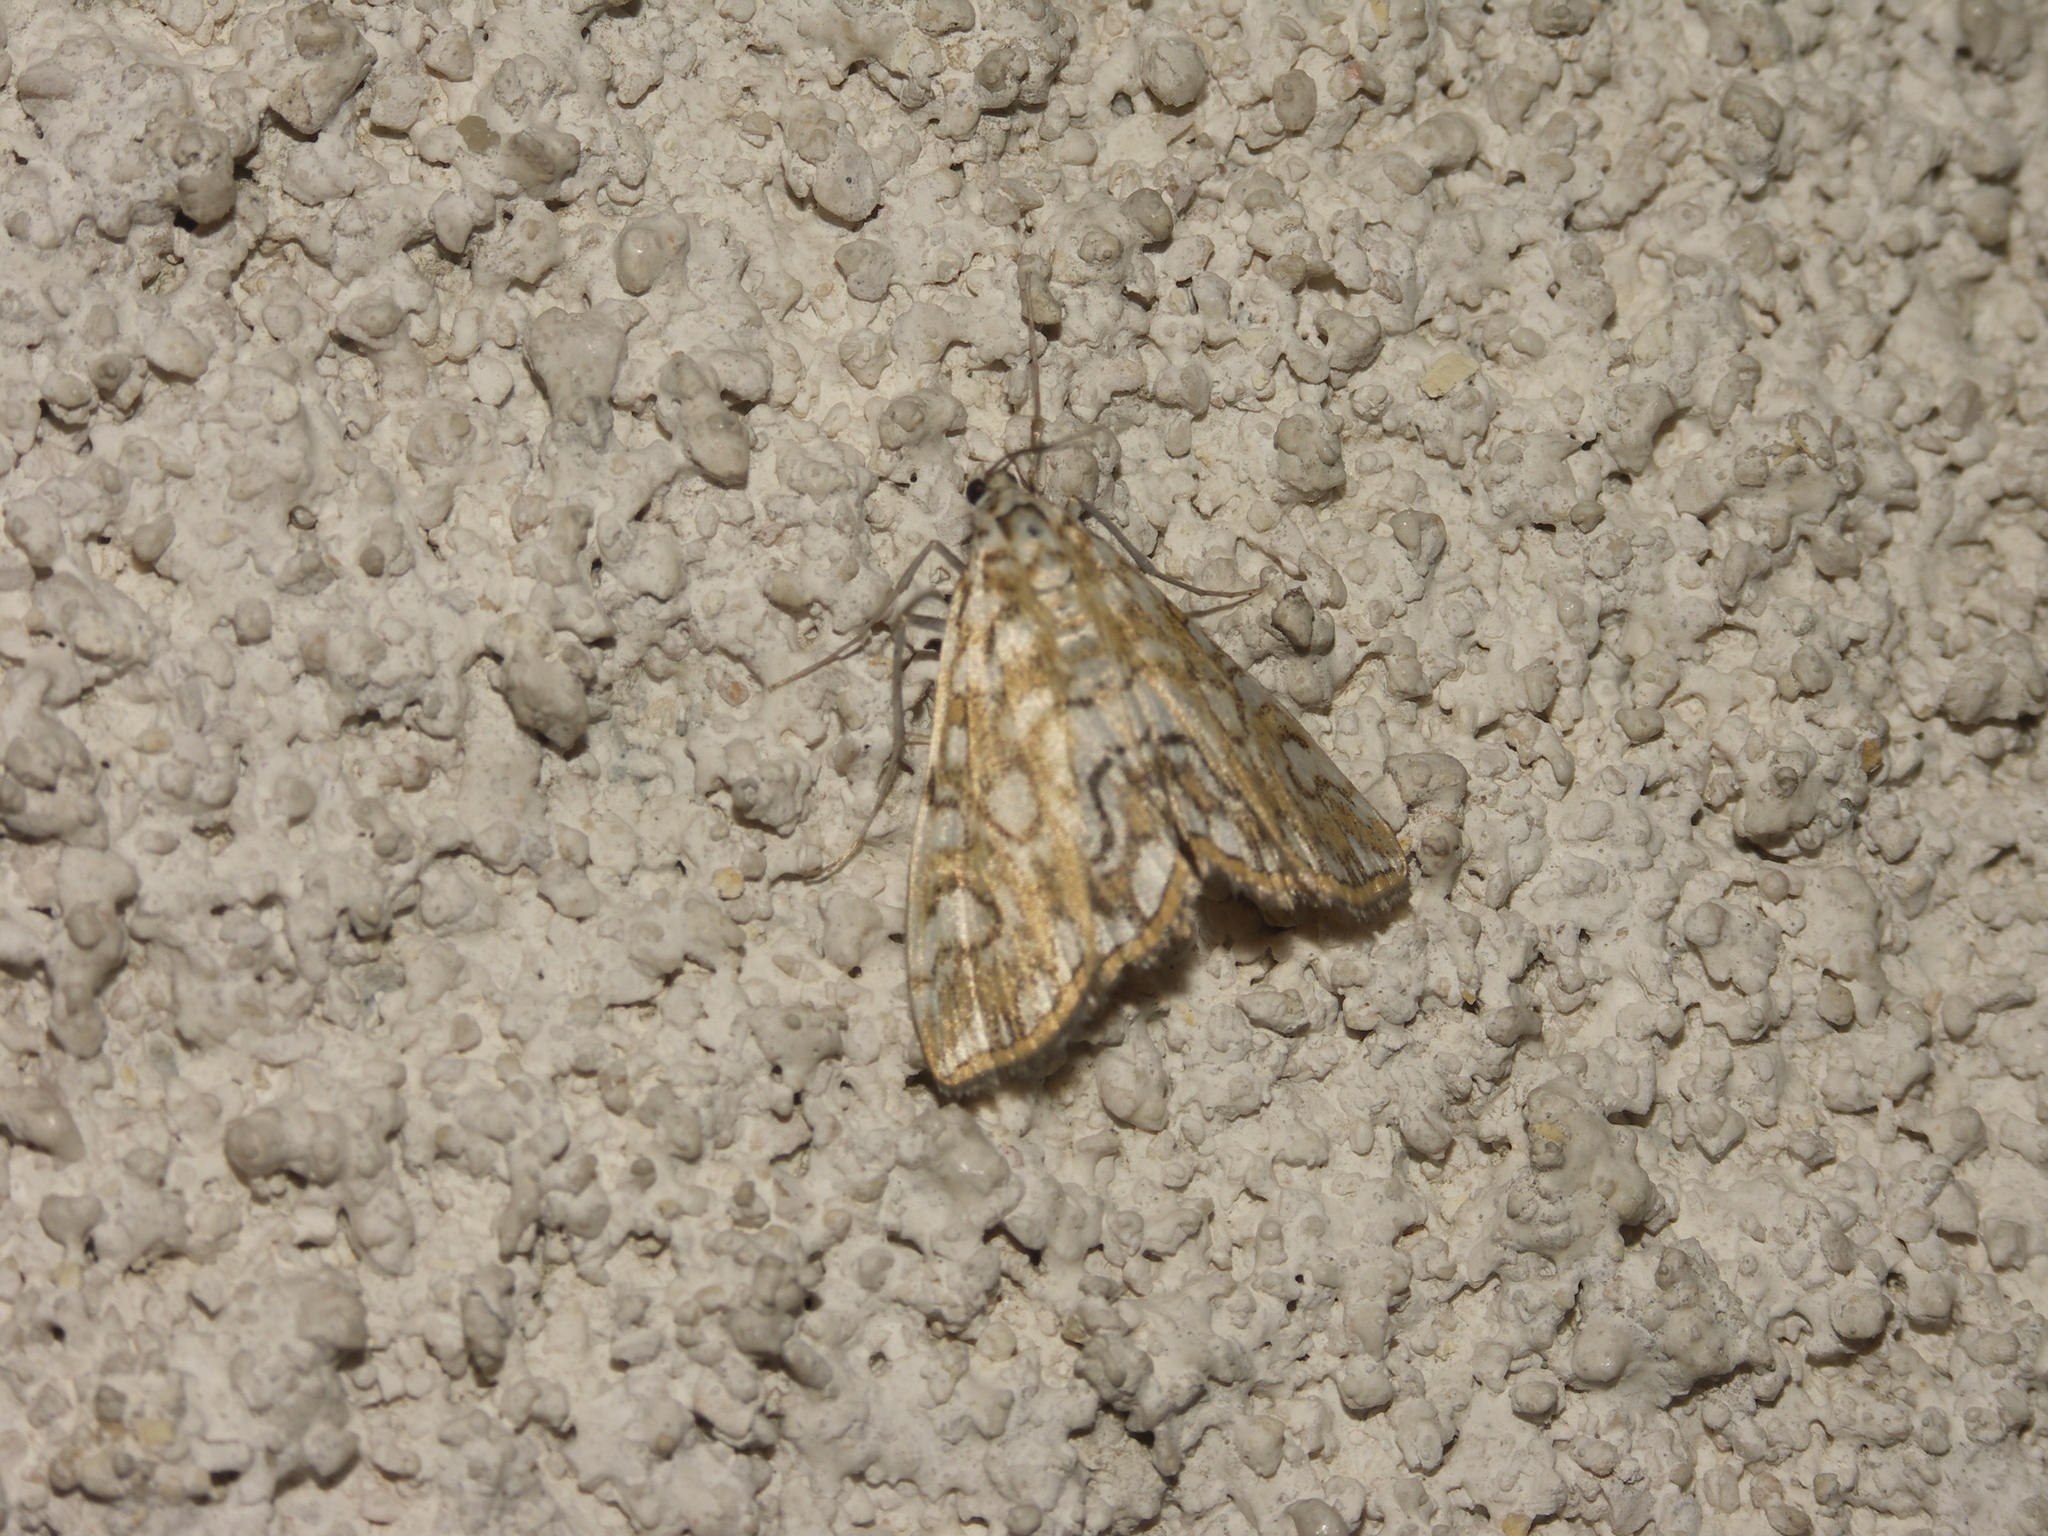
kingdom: Animalia
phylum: Arthropoda
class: Insecta
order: Lepidoptera
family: Crambidae
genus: Elophila
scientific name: Elophila nymphaeata
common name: Brown china-mark
